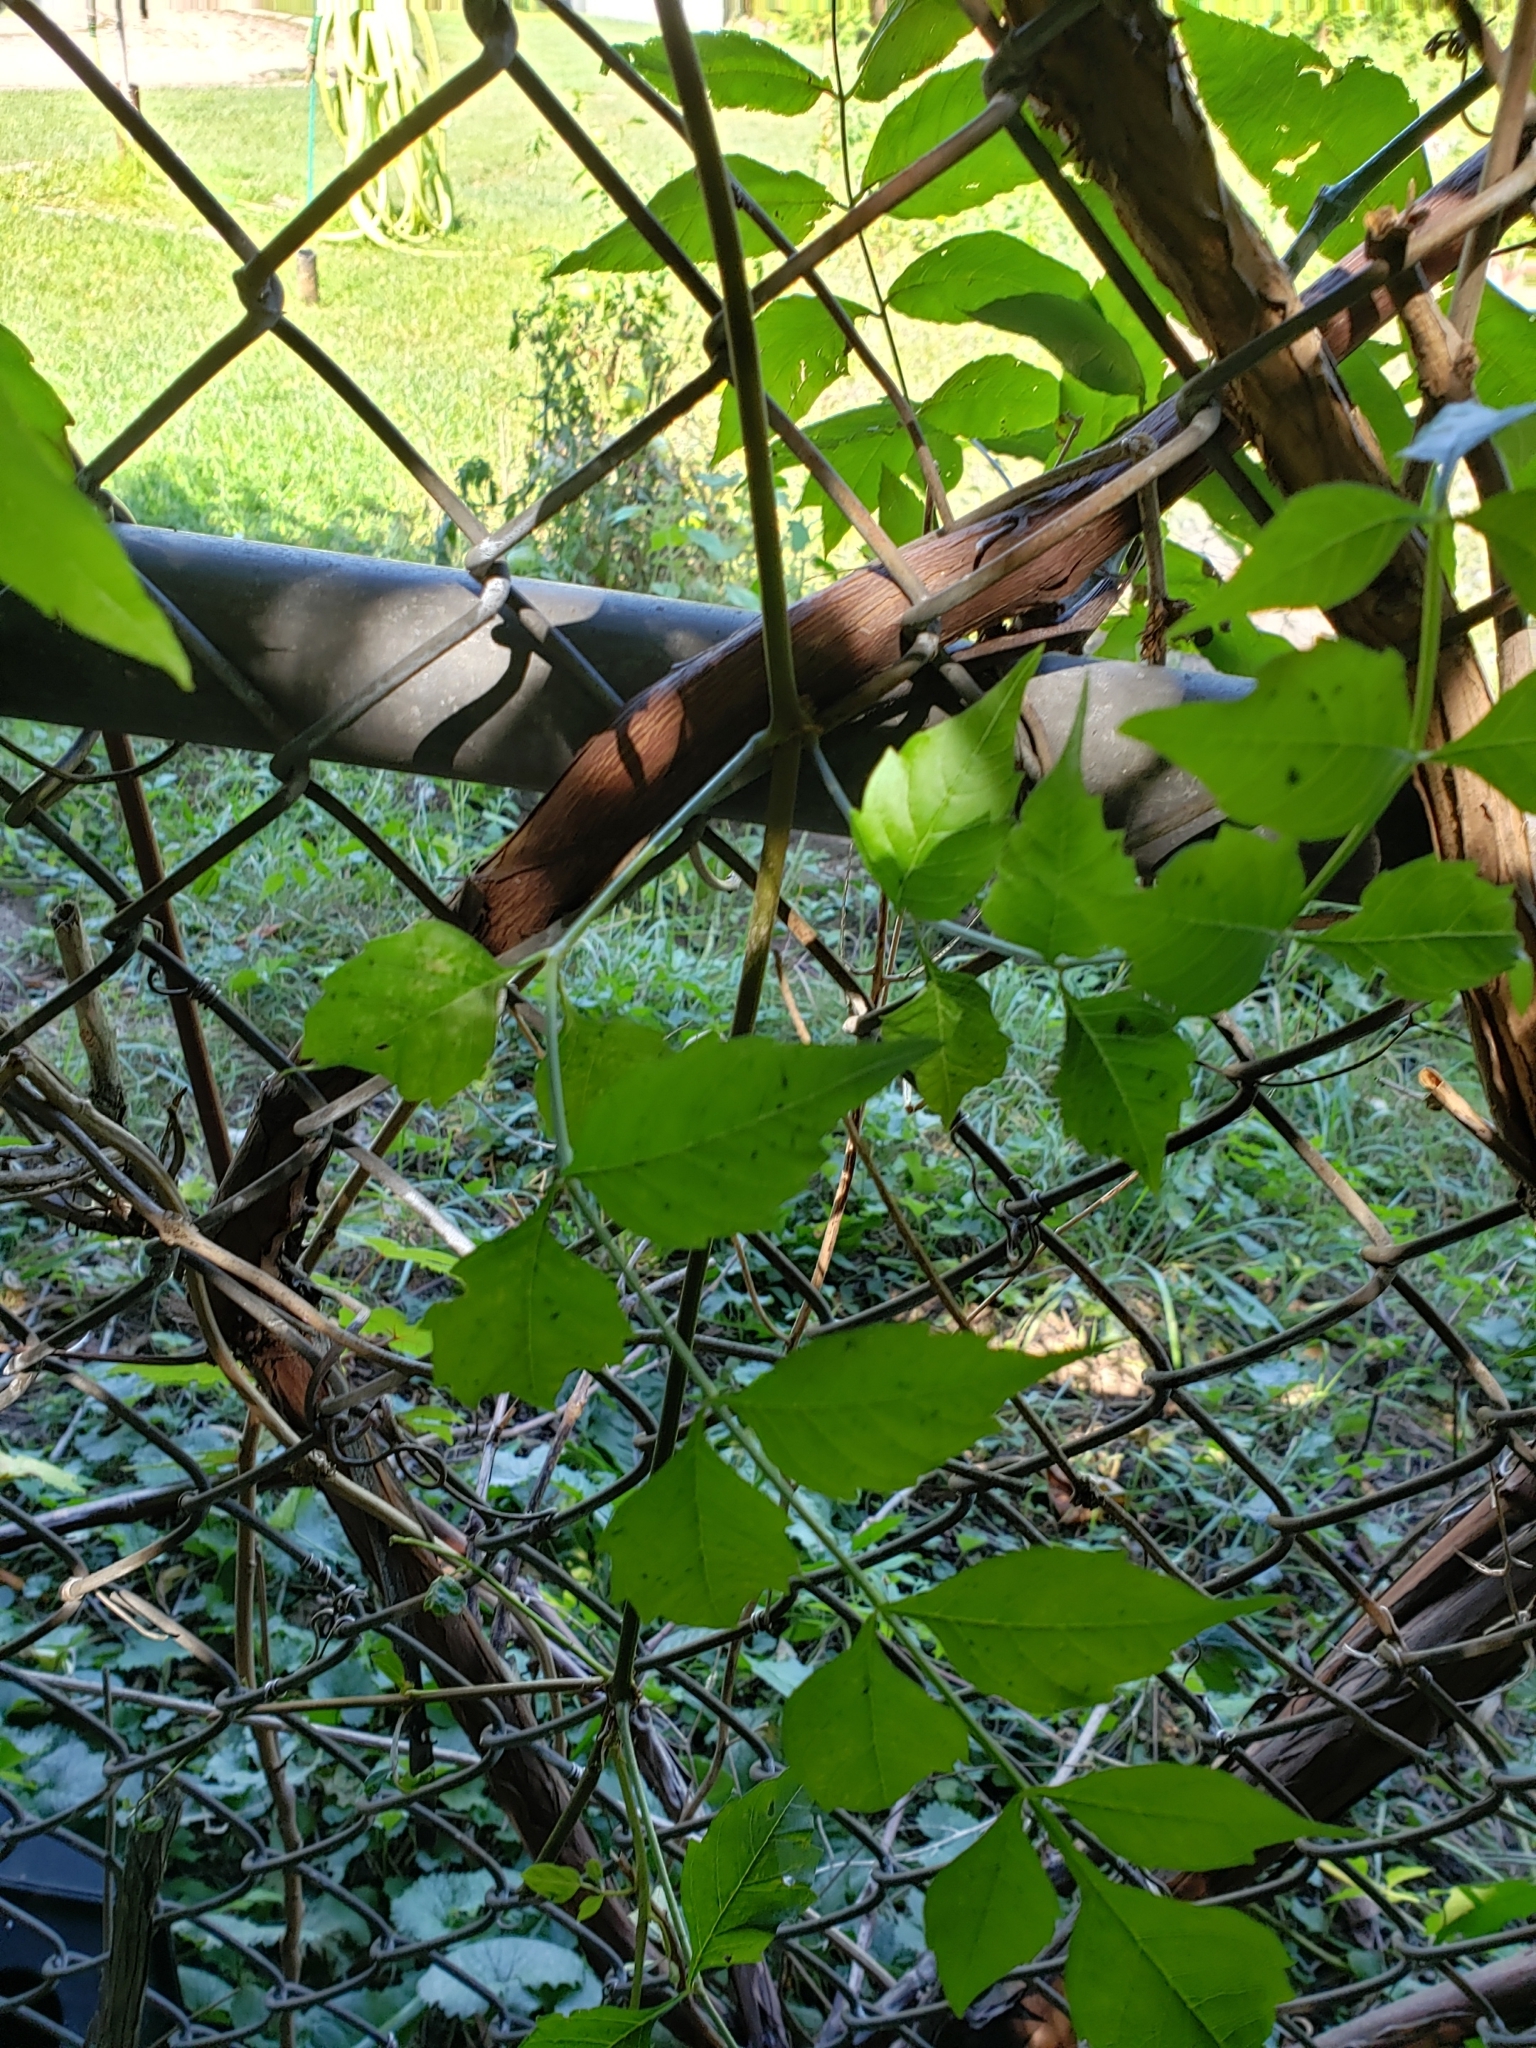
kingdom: Plantae
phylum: Tracheophyta
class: Magnoliopsida
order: Lamiales
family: Bignoniaceae
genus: Campsis
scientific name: Campsis radicans
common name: Trumpet-creeper
